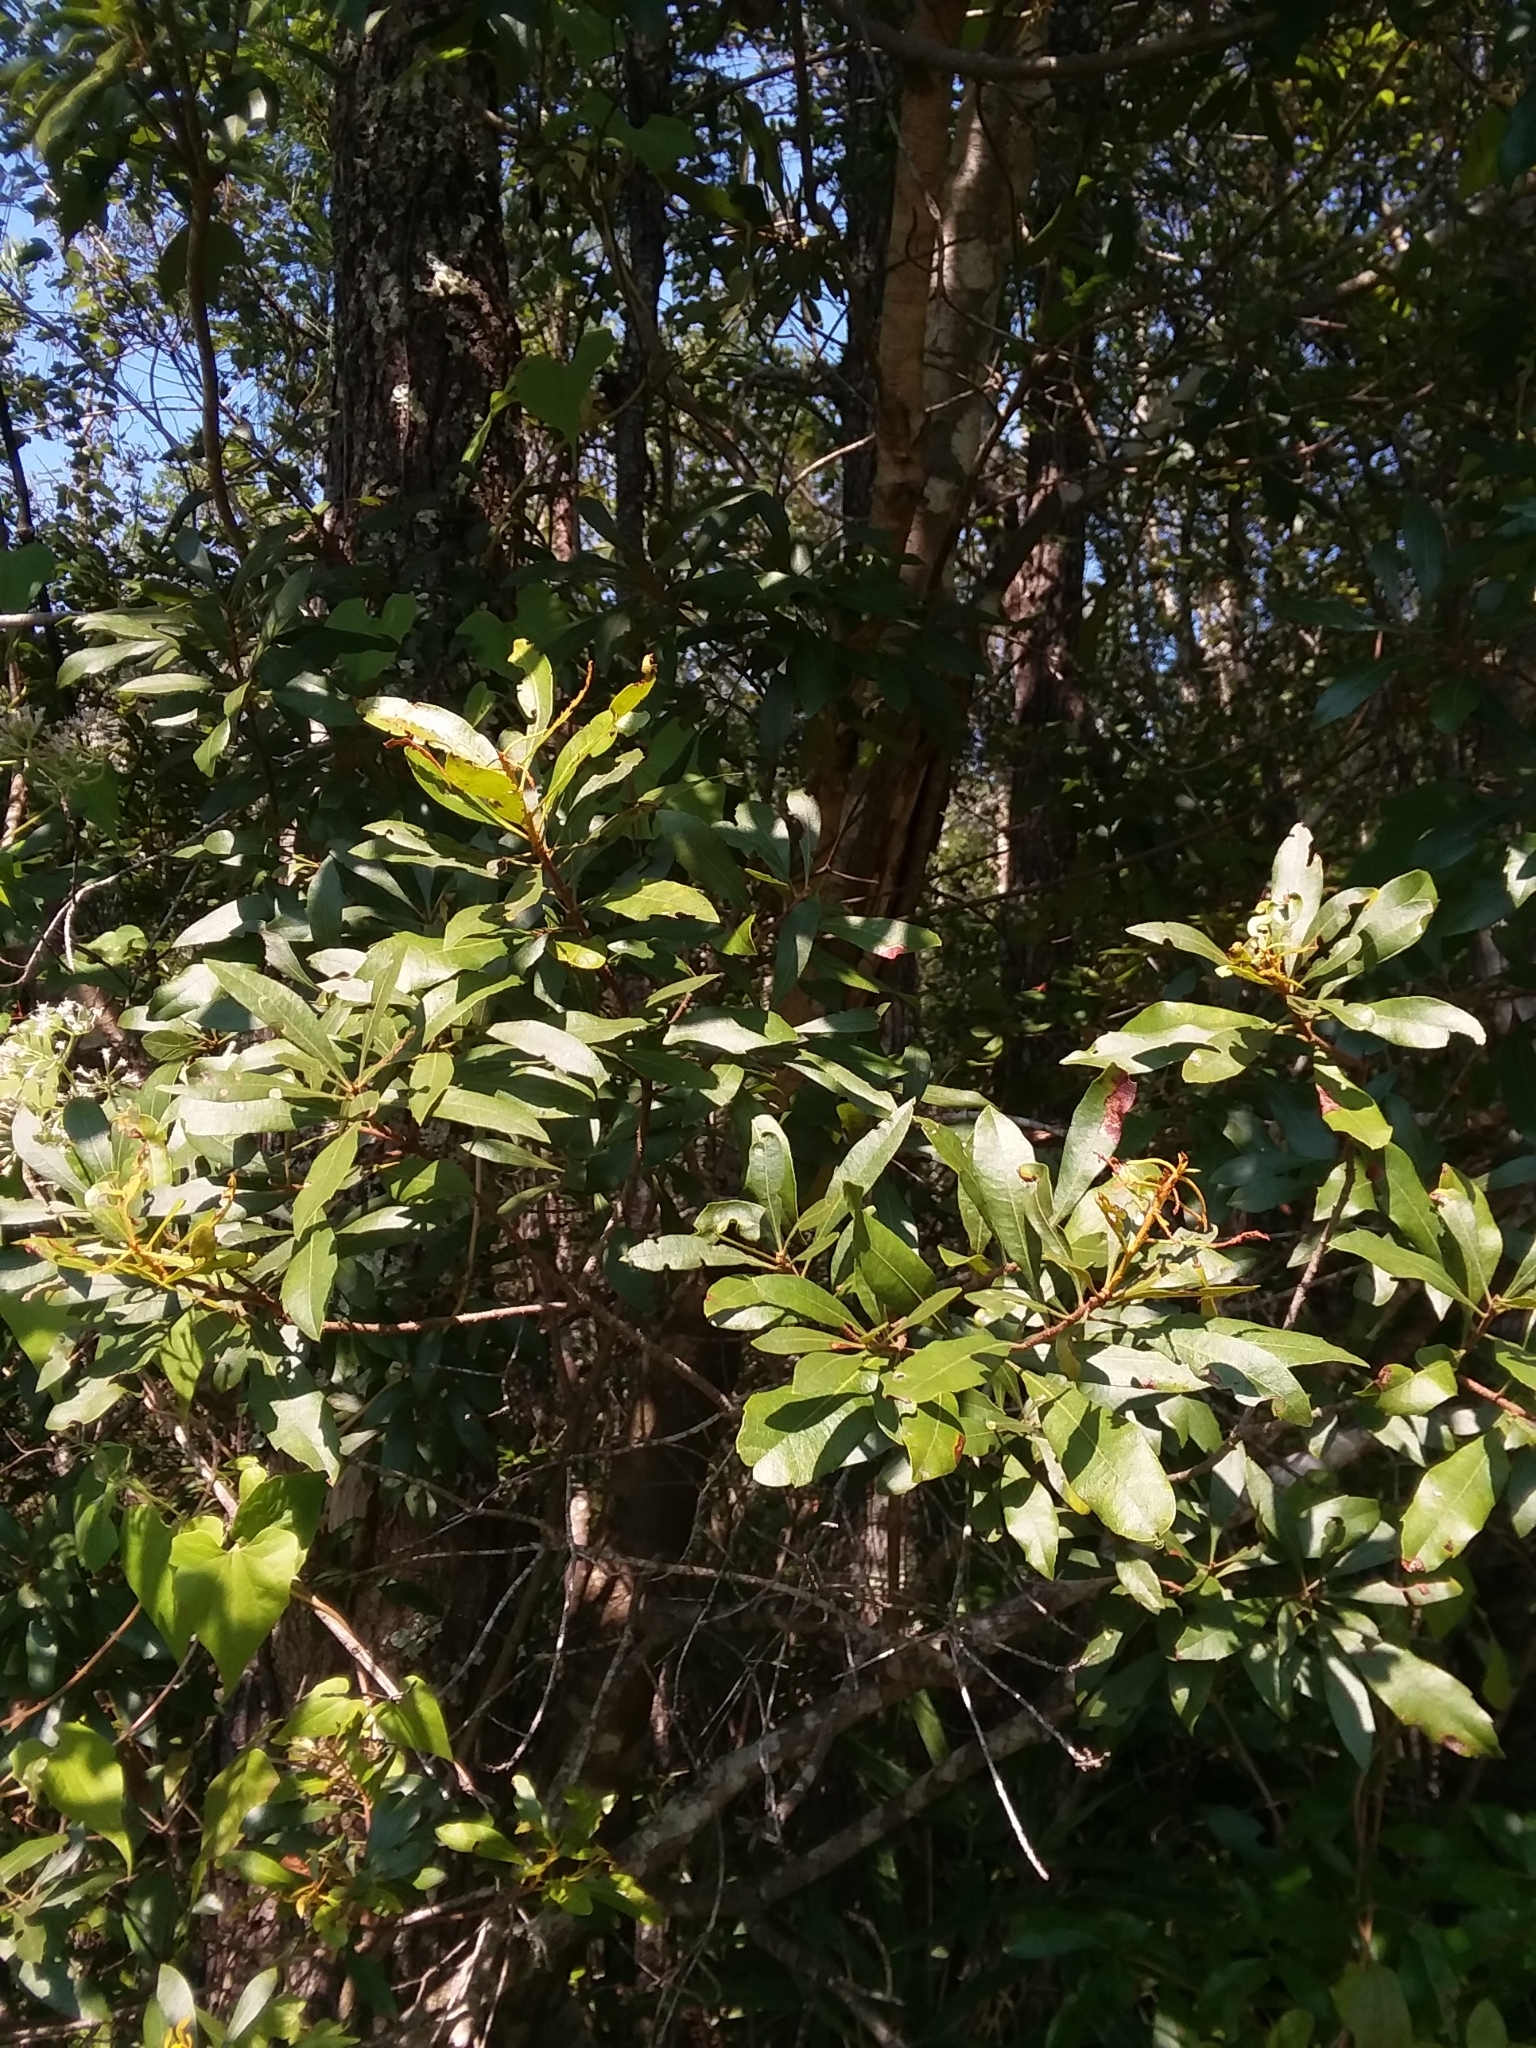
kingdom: Plantae
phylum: Tracheophyta
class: Magnoliopsida
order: Fagales
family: Myricaceae
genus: Morella
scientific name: Morella cerifera
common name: Wax myrtle
